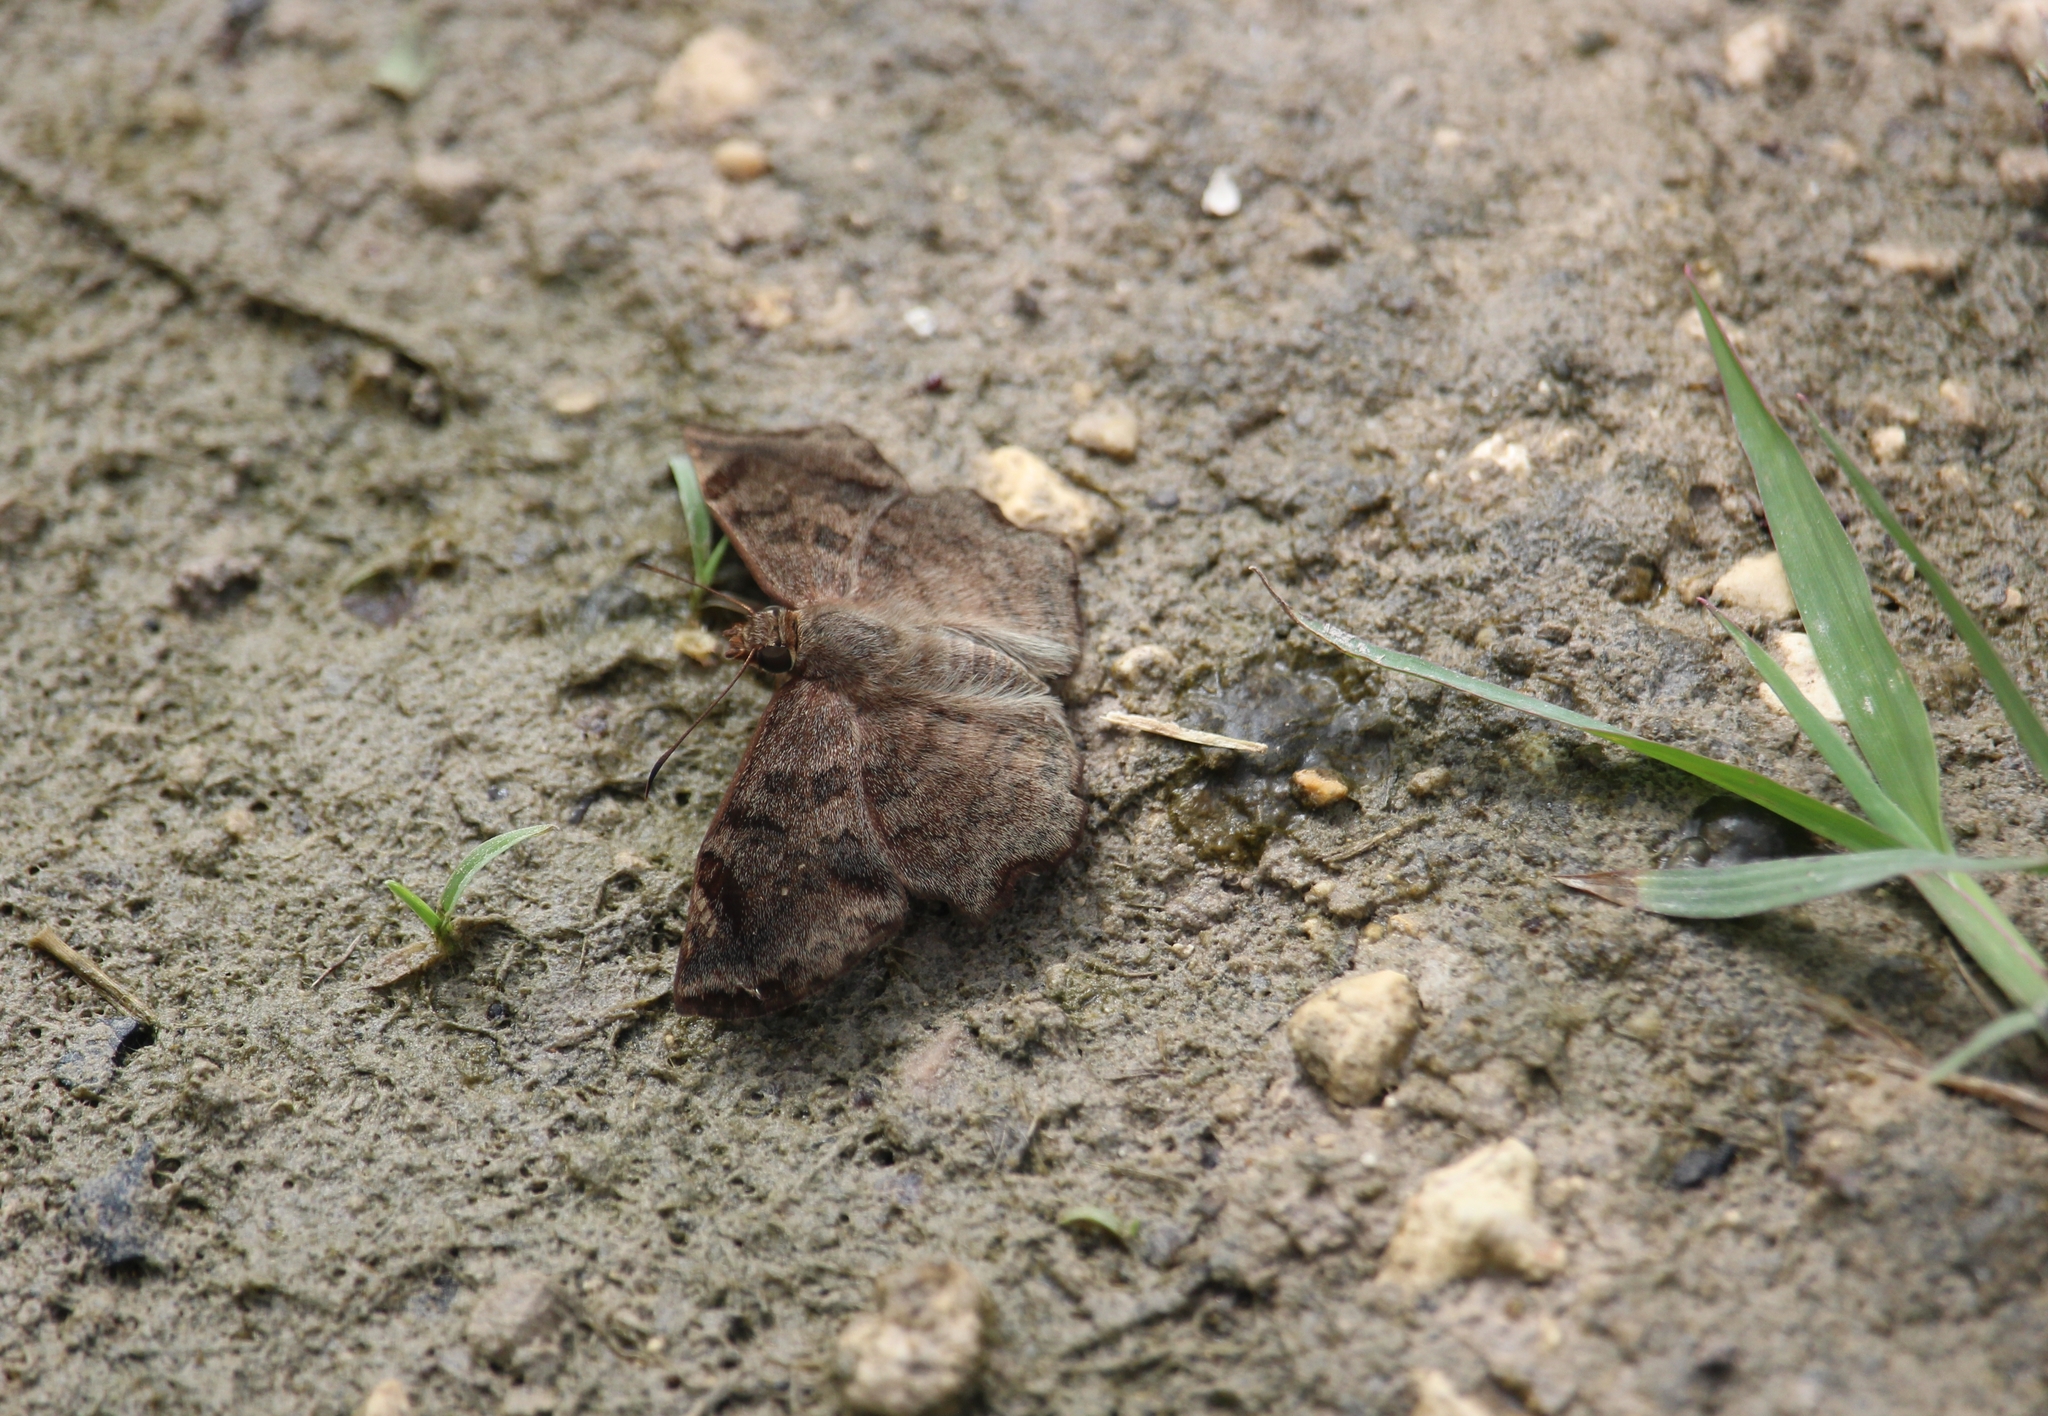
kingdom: Animalia
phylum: Arthropoda
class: Insecta
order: Lepidoptera
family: Hesperiidae
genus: Antigonus
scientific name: Antigonus erosus
